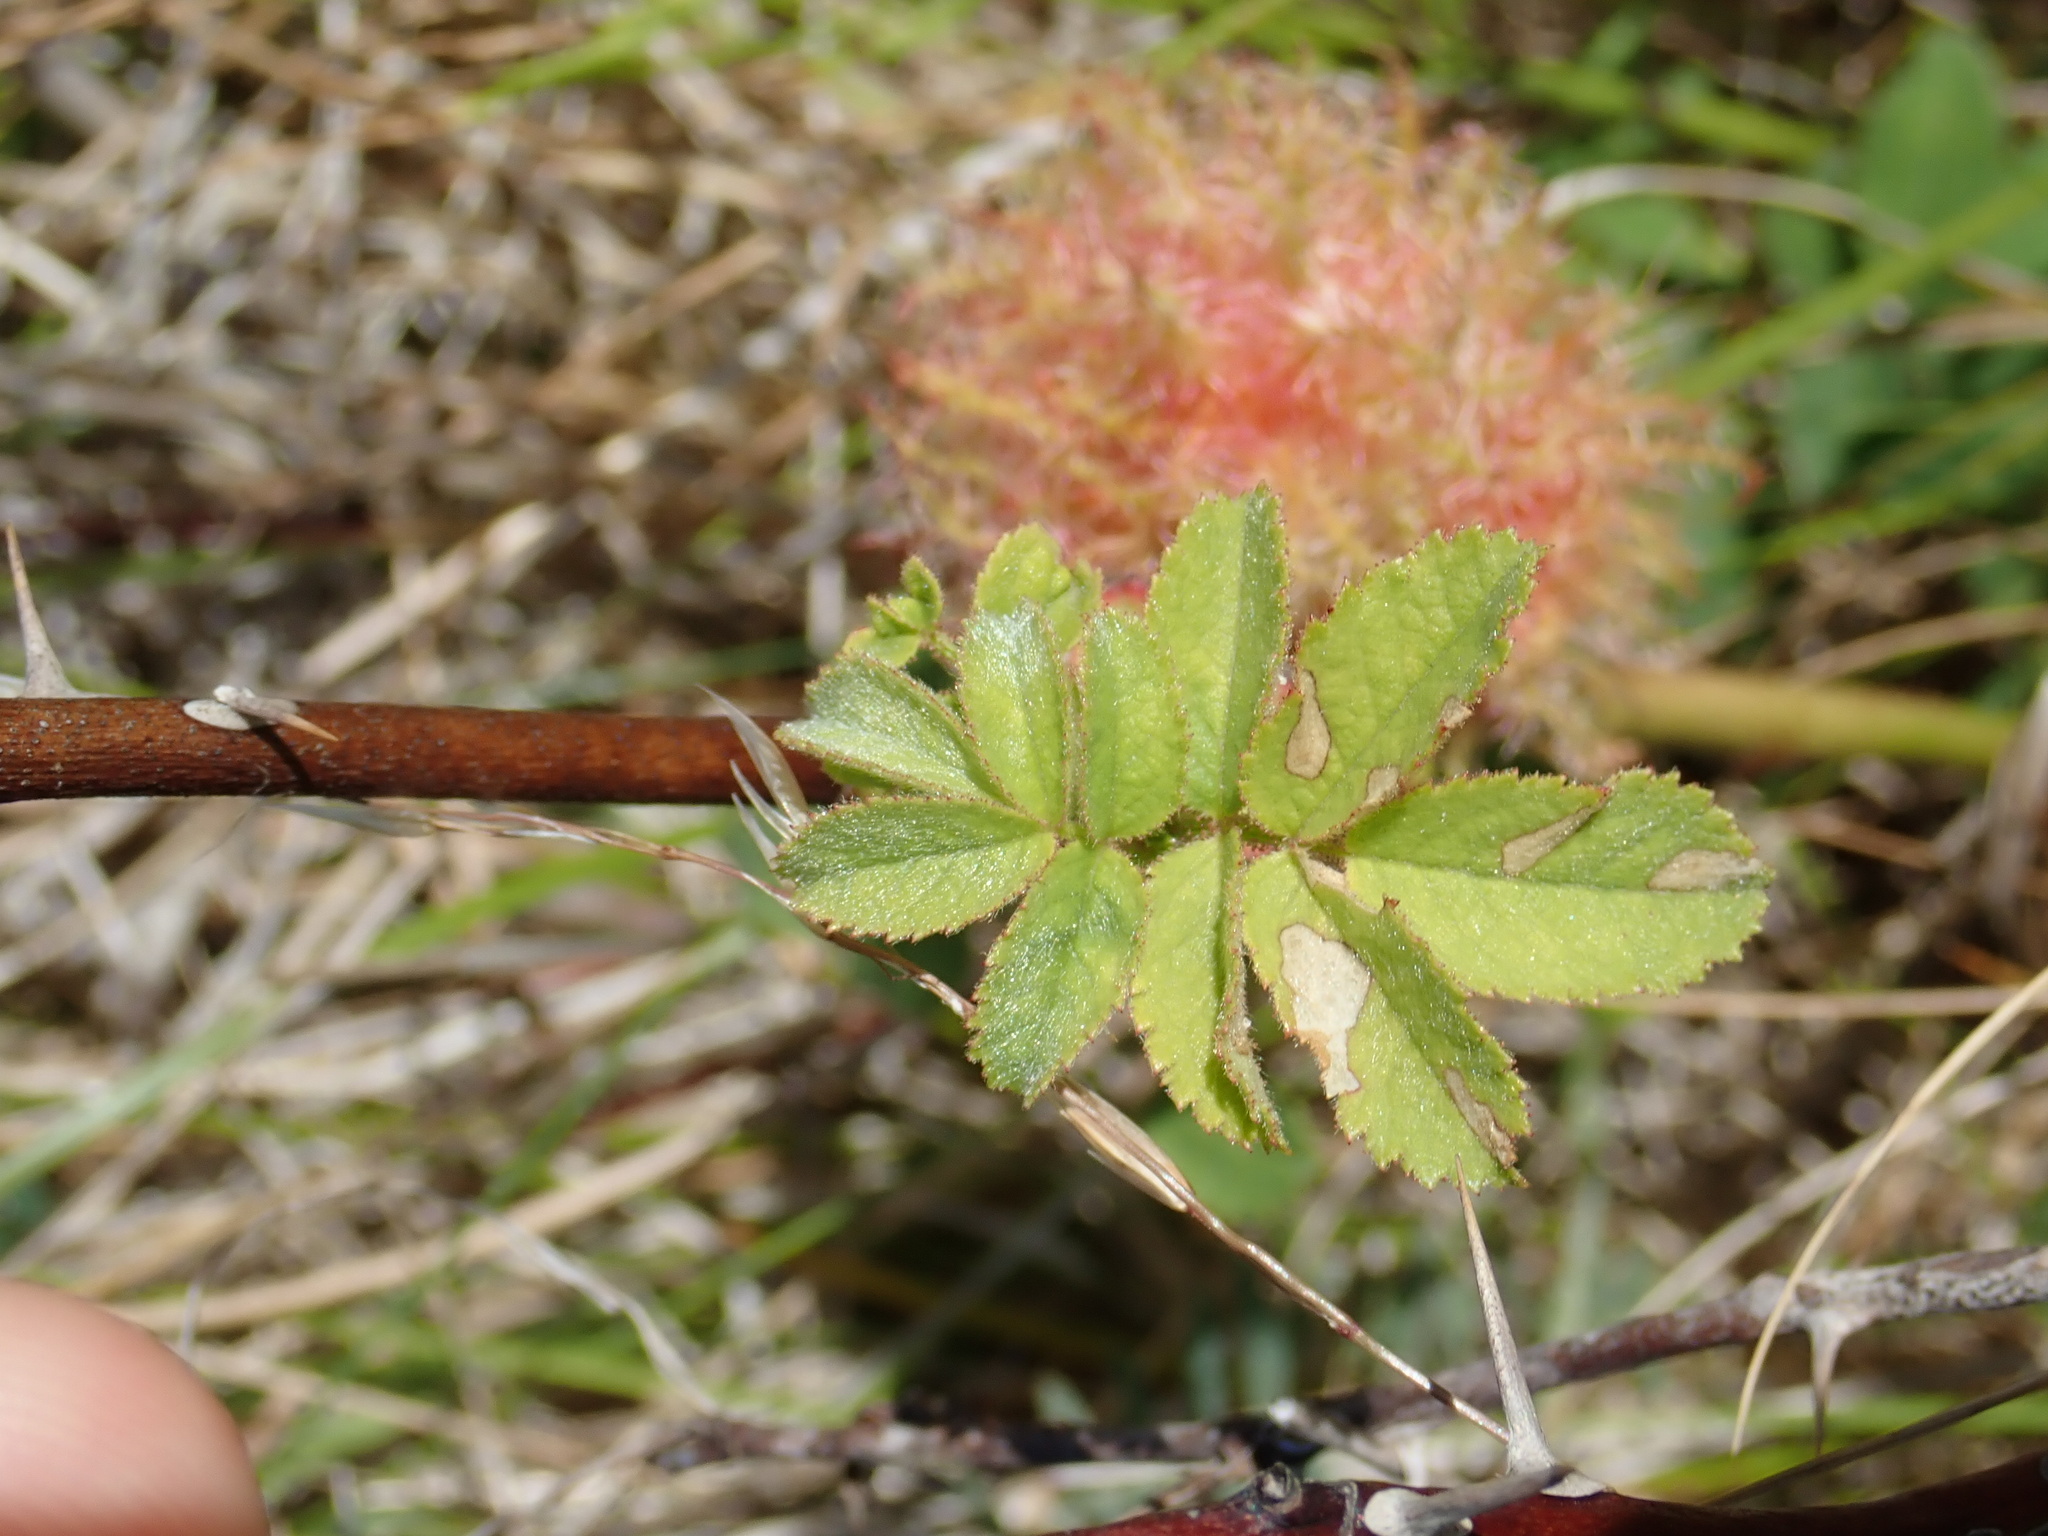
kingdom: Animalia
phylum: Arthropoda
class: Insecta
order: Hymenoptera
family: Cynipidae
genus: Diplolepis
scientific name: Diplolepis rosae
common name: Bedeguar gall
